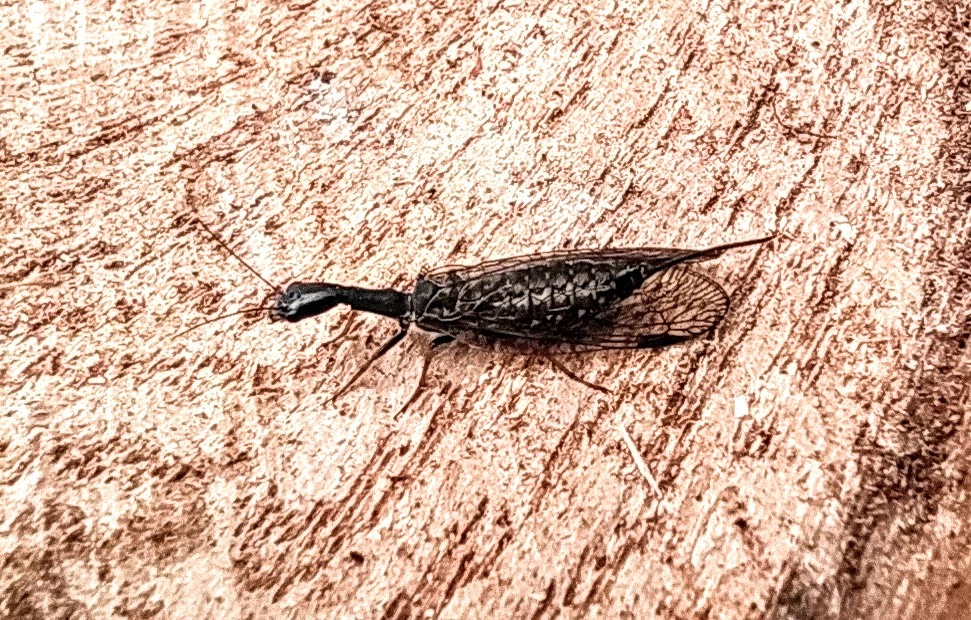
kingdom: Animalia
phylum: Arthropoda
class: Insecta
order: Raphidioptera
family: Raphidiidae
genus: Phaeostigma
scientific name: Phaeostigma notatum
